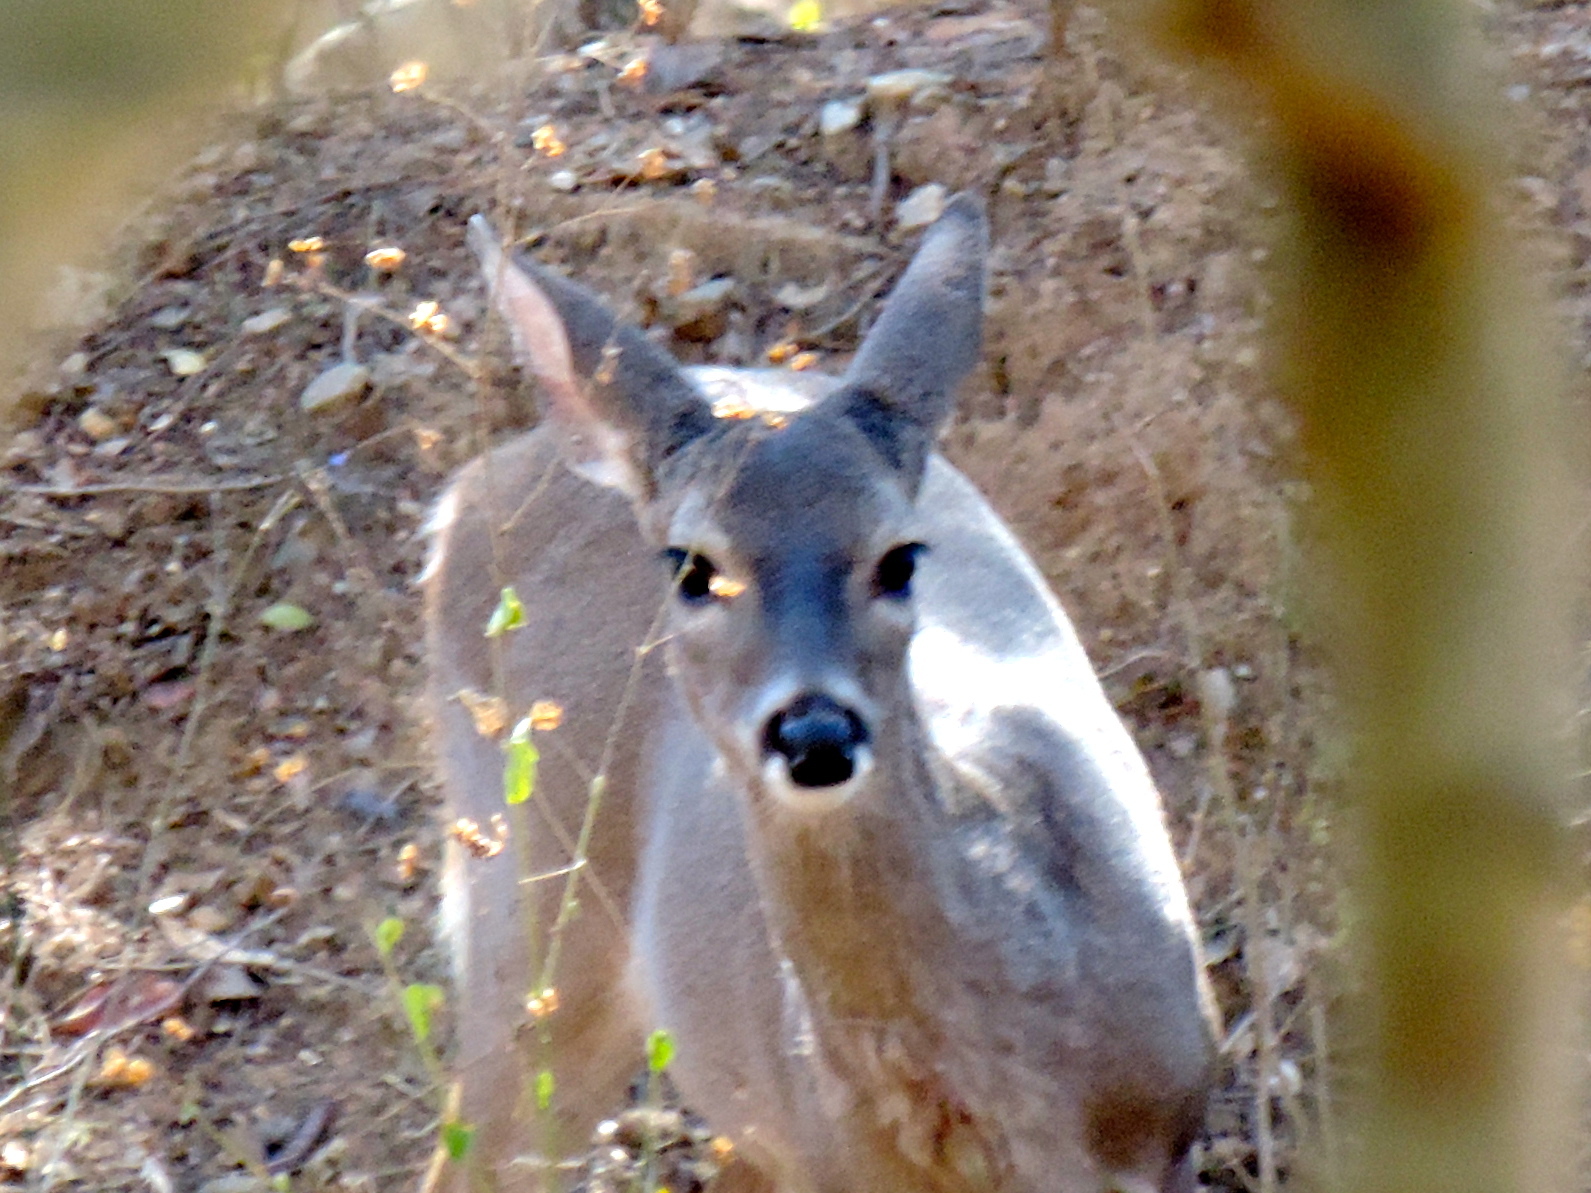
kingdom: Animalia
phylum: Chordata
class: Mammalia
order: Artiodactyla
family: Cervidae
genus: Odocoileus
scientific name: Odocoileus virginianus
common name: White-tailed deer
